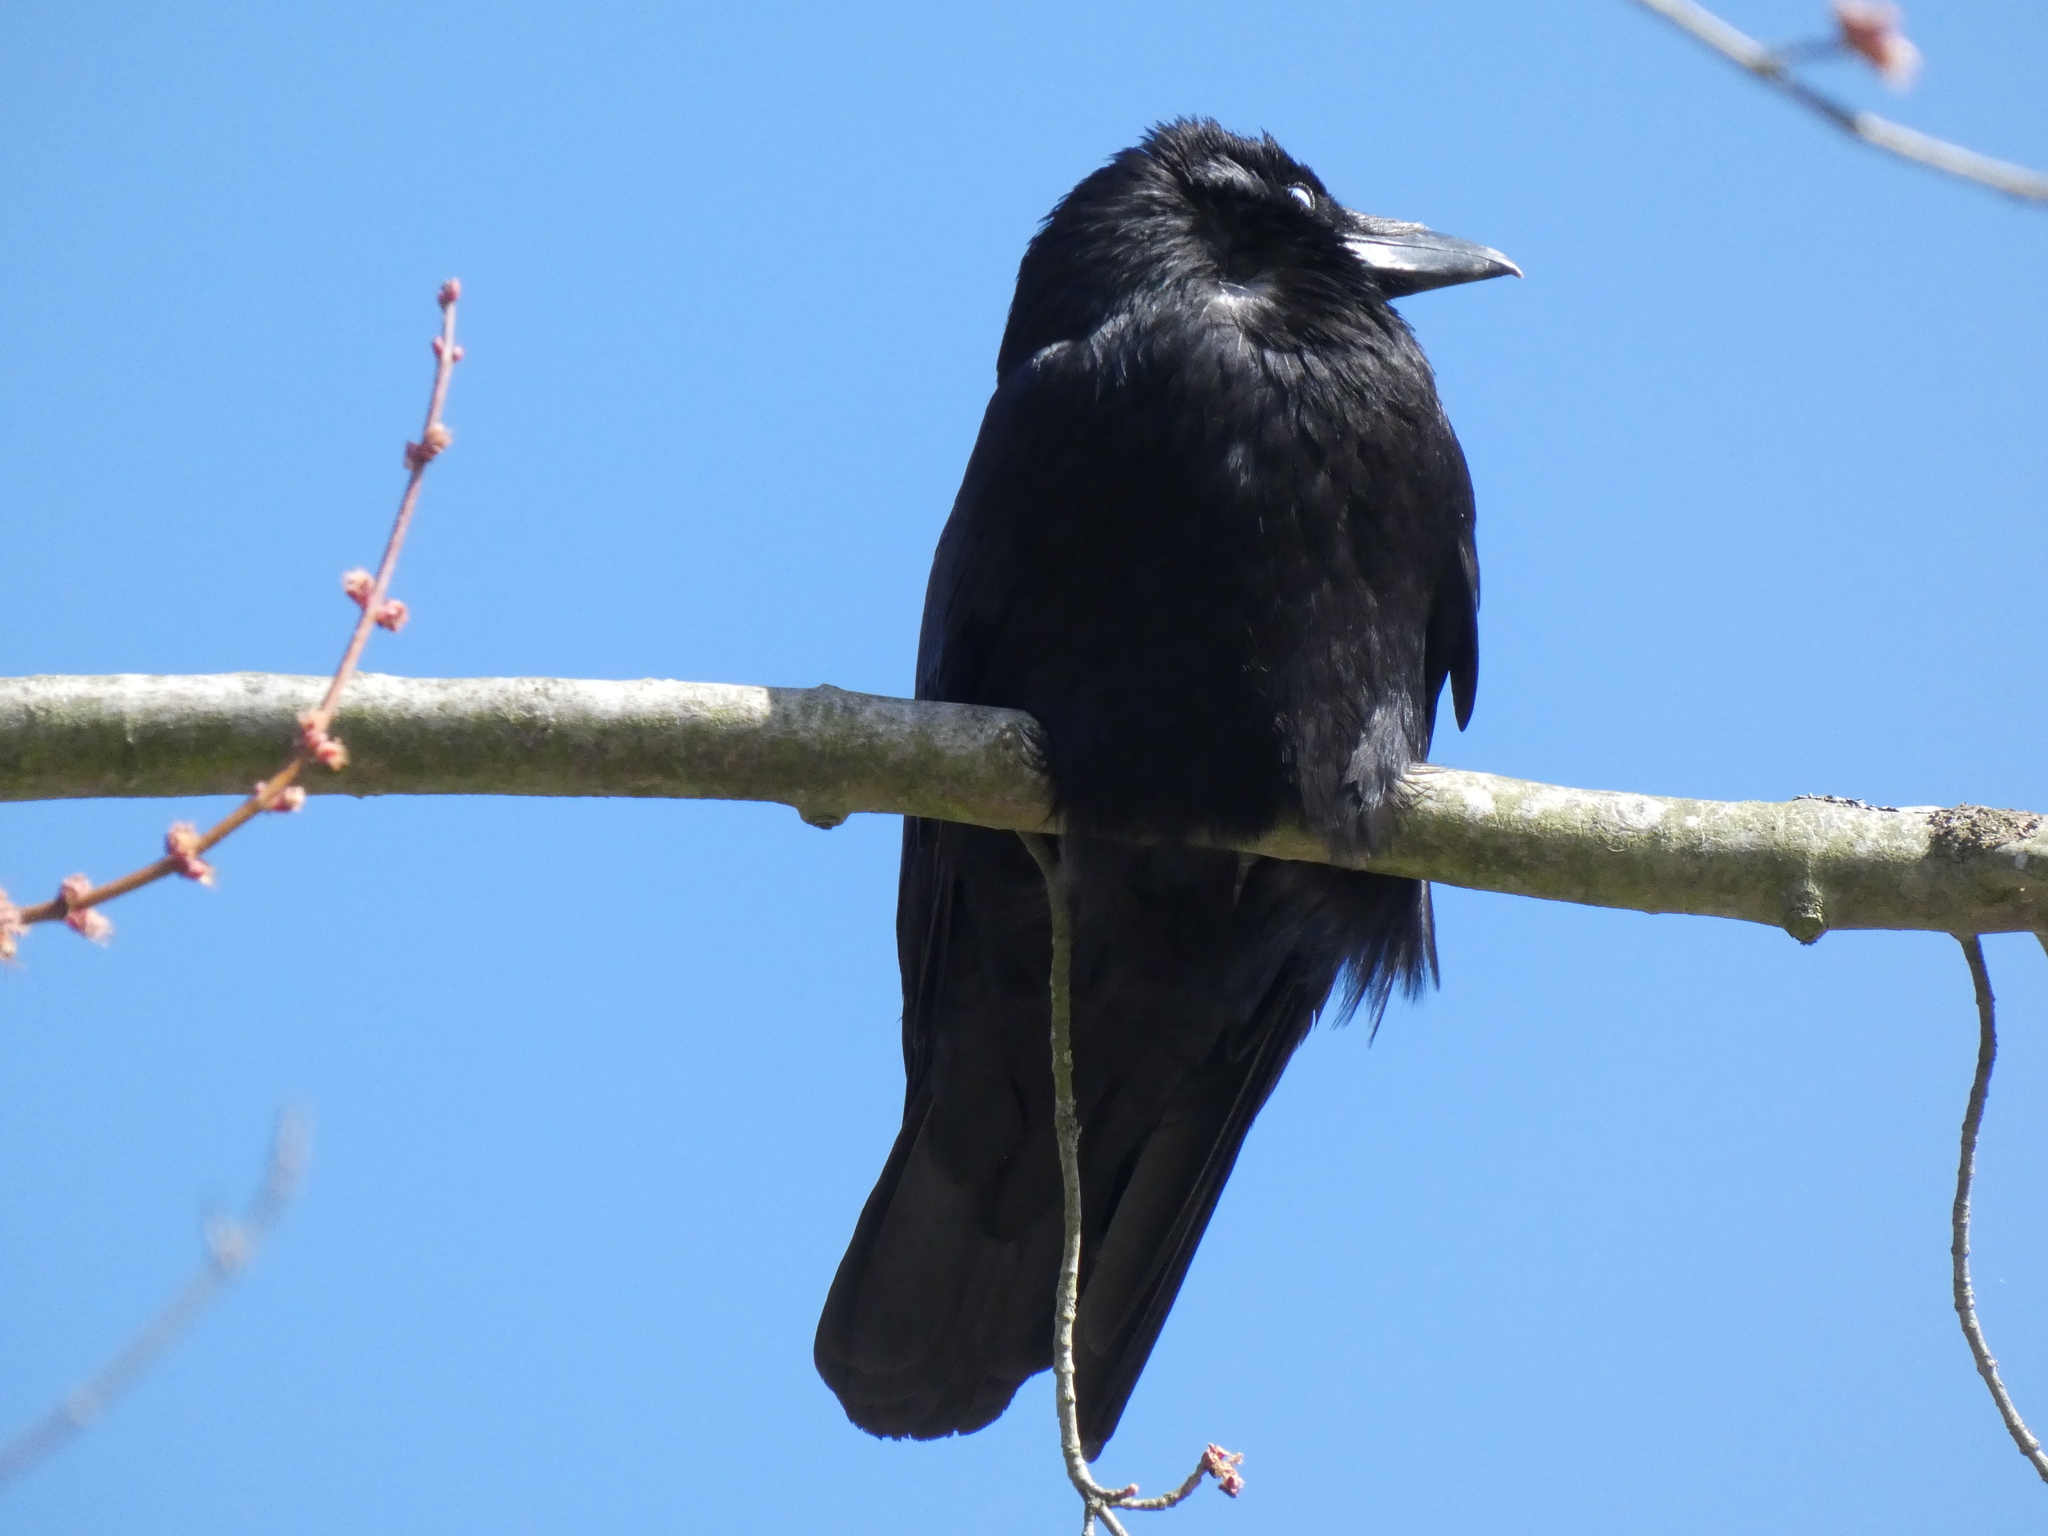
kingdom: Animalia
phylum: Chordata
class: Aves
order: Passeriformes
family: Corvidae
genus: Corvus
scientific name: Corvus corone
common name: Carrion crow
